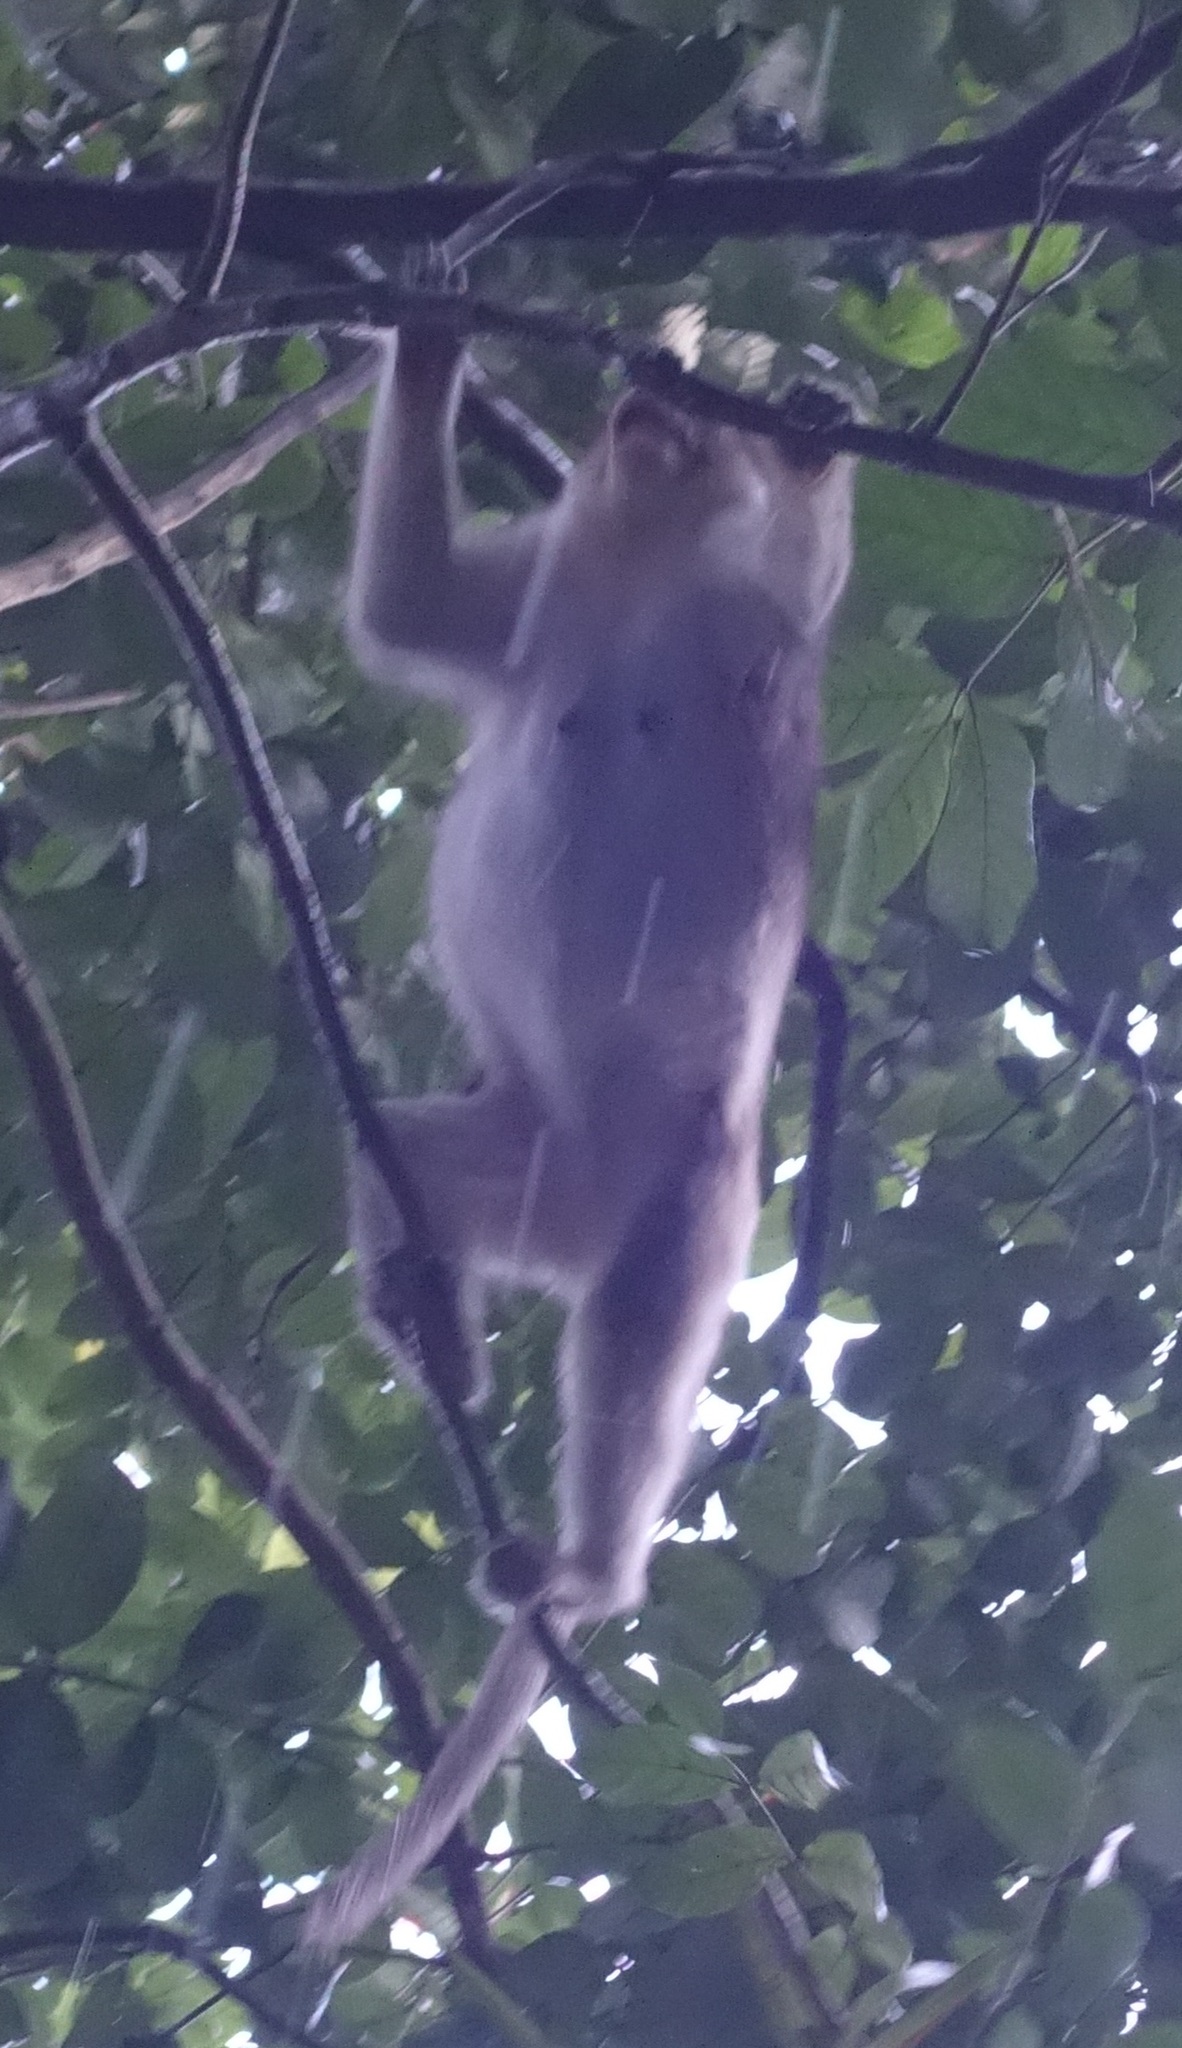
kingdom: Animalia
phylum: Chordata
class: Mammalia
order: Primates
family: Cercopithecidae
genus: Macaca
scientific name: Macaca radiata
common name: Bonnet macaque
